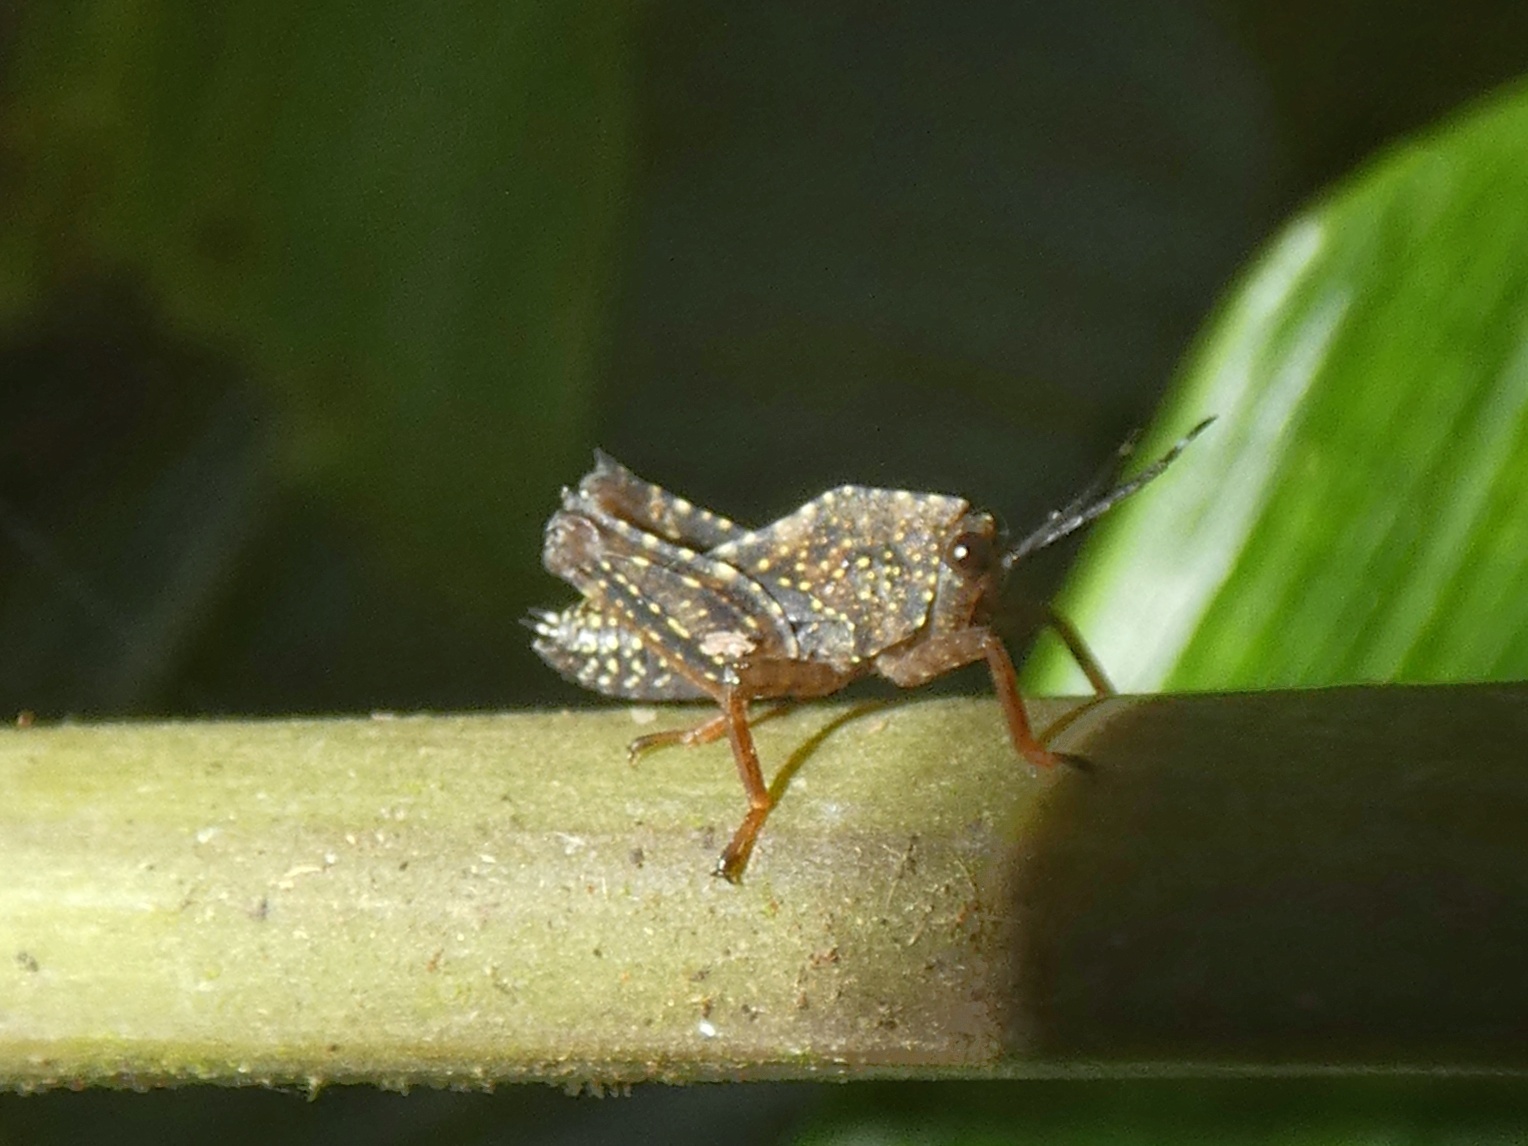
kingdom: Animalia
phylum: Arthropoda
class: Insecta
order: Orthoptera
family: Tetrigidae
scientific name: Tetrigidae
